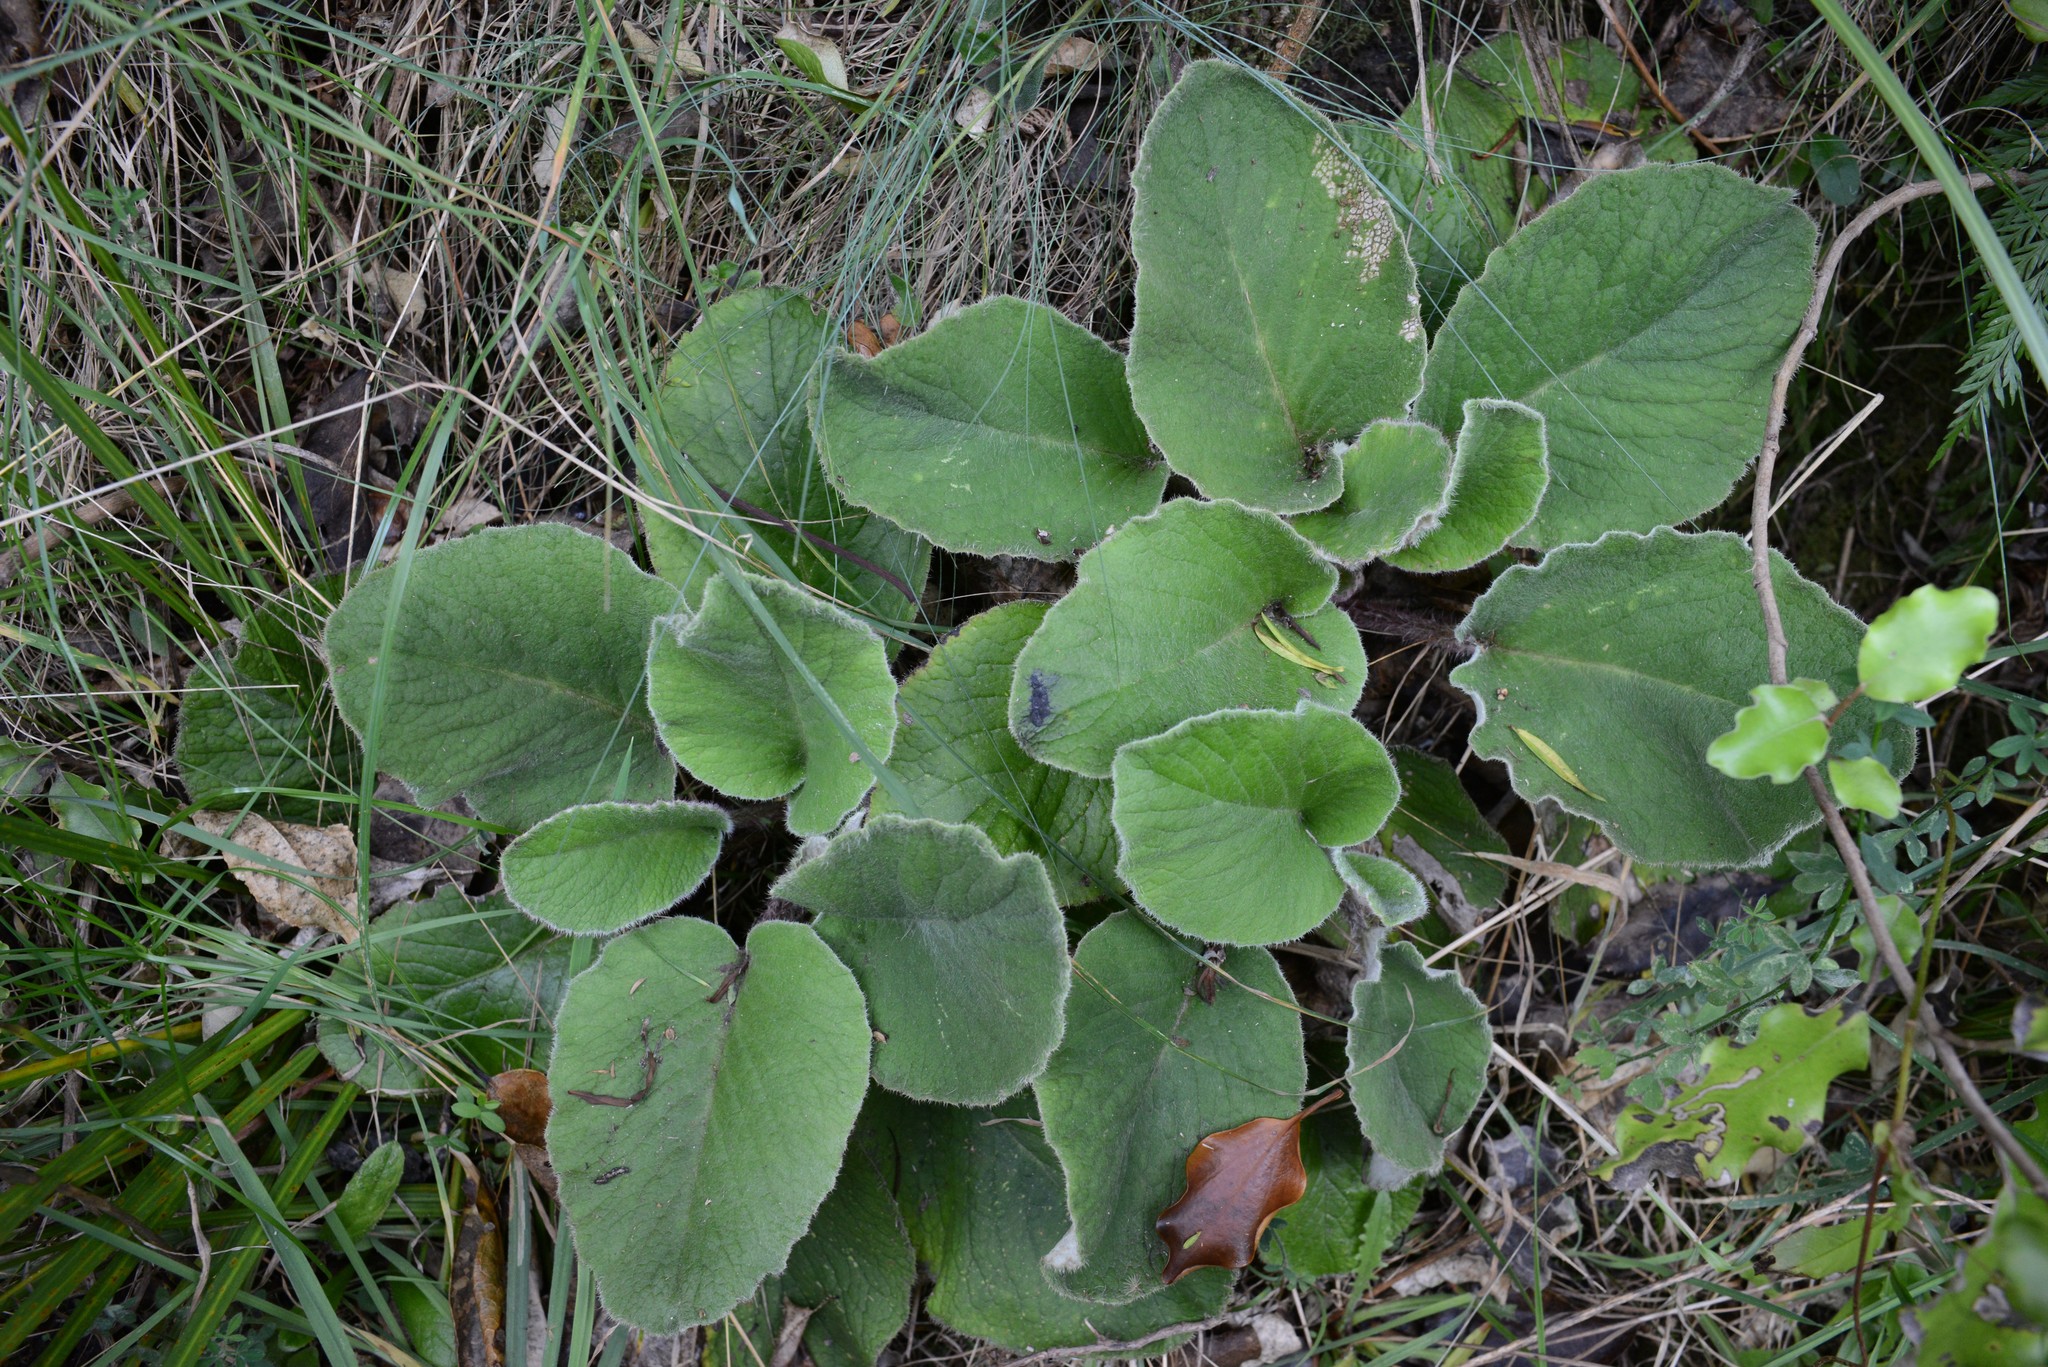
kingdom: Plantae
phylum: Tracheophyta
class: Magnoliopsida
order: Asterales
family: Asteraceae
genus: Brachyglottis
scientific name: Brachyglottis lagopus
